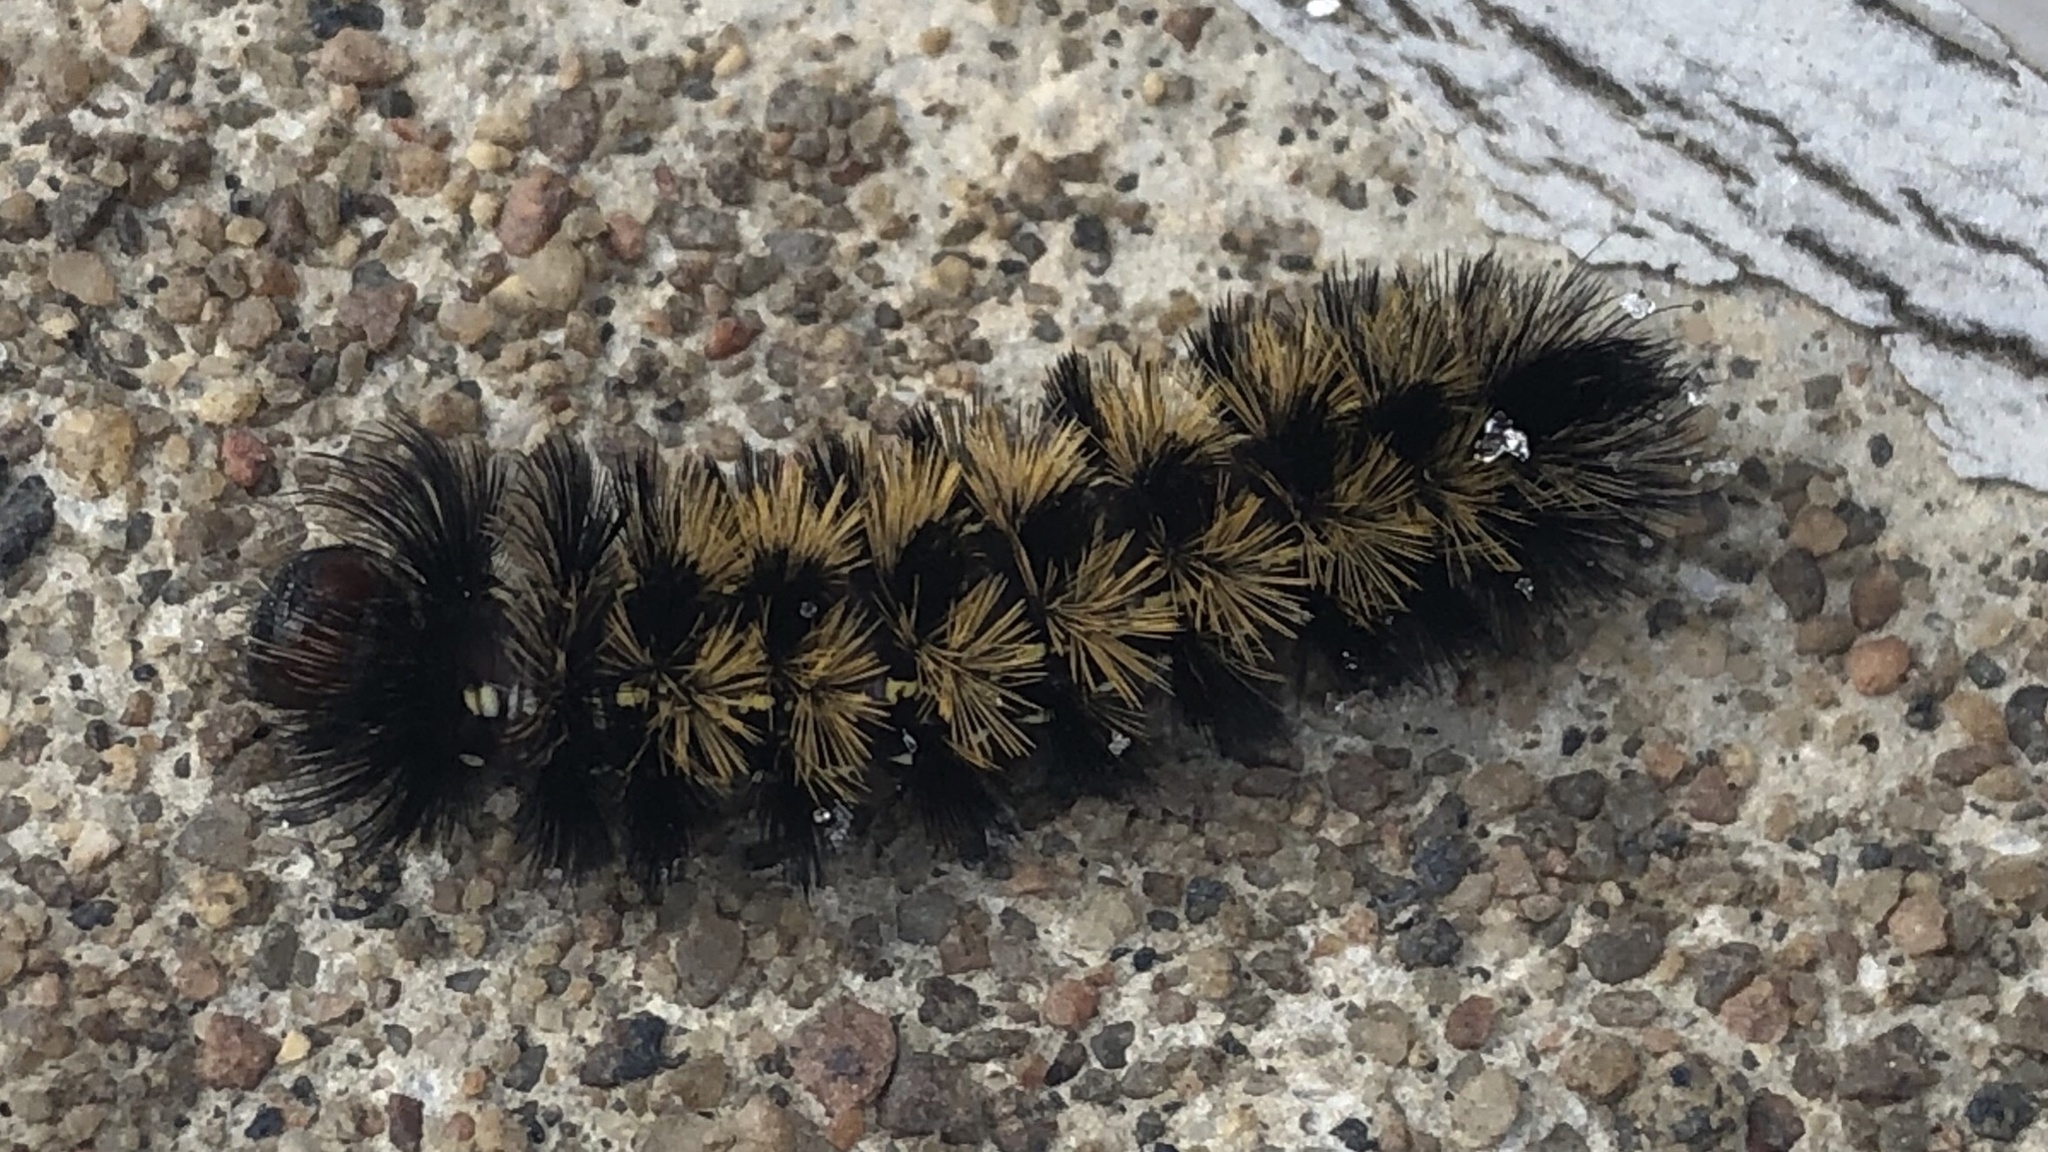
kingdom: Animalia
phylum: Arthropoda
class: Insecta
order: Lepidoptera
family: Erebidae
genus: Ctenucha
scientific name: Ctenucha virginica
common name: Virginia ctenucha moth
